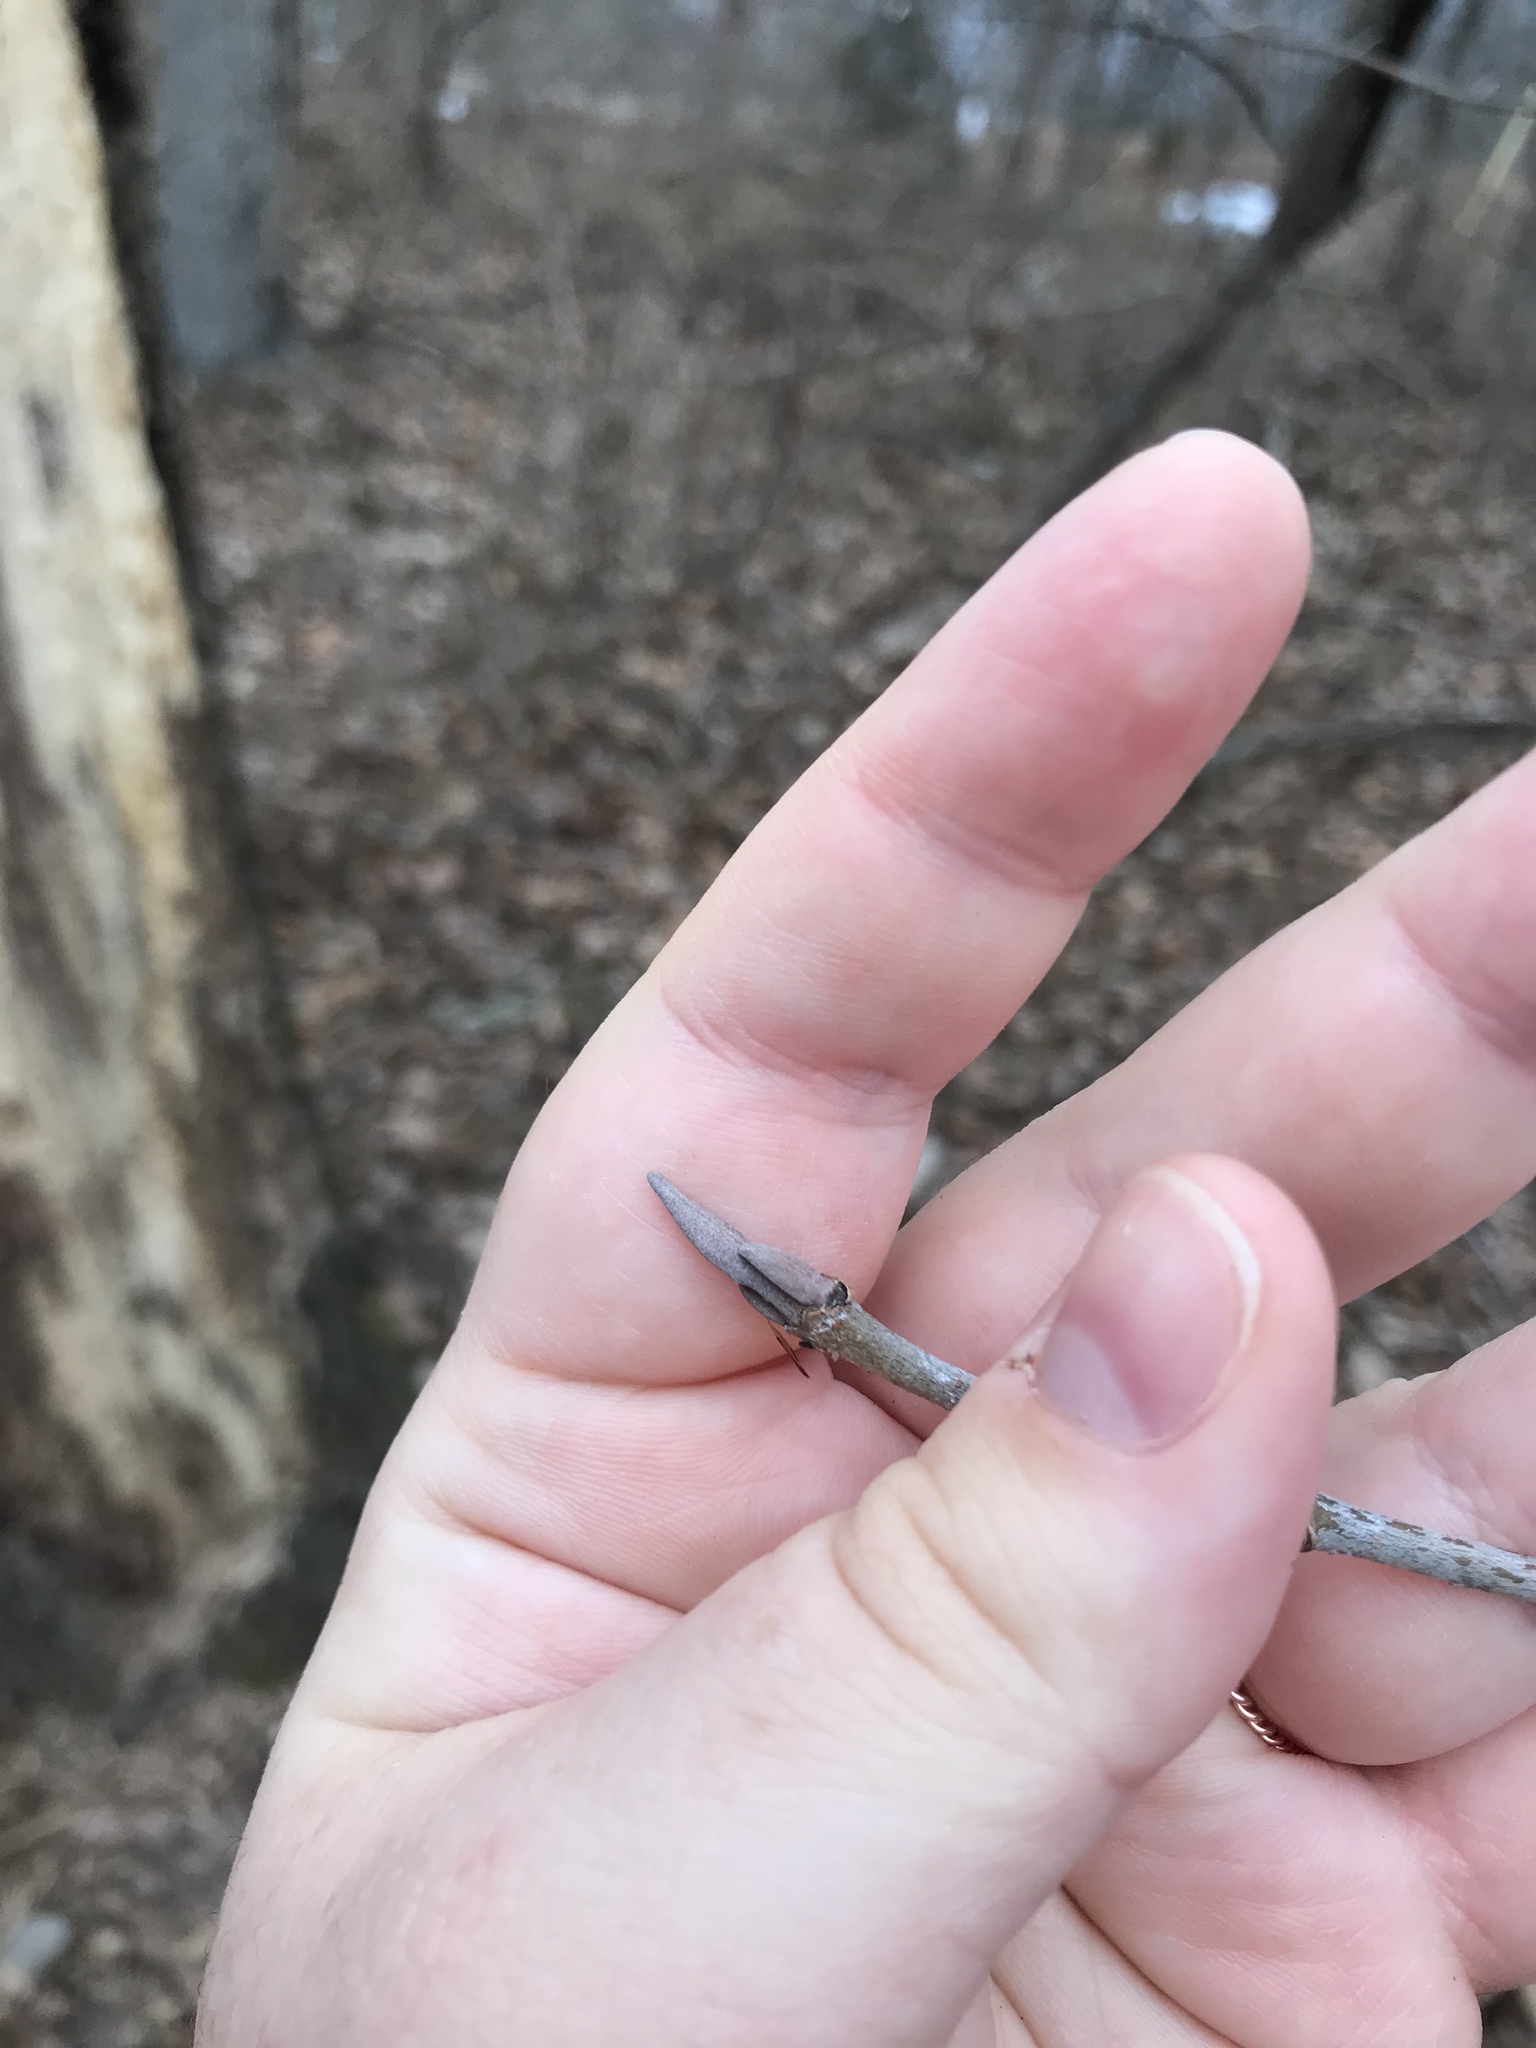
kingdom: Plantae
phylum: Tracheophyta
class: Magnoliopsida
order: Dipsacales
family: Viburnaceae
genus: Viburnum
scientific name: Viburnum prunifolium
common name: Black haw
